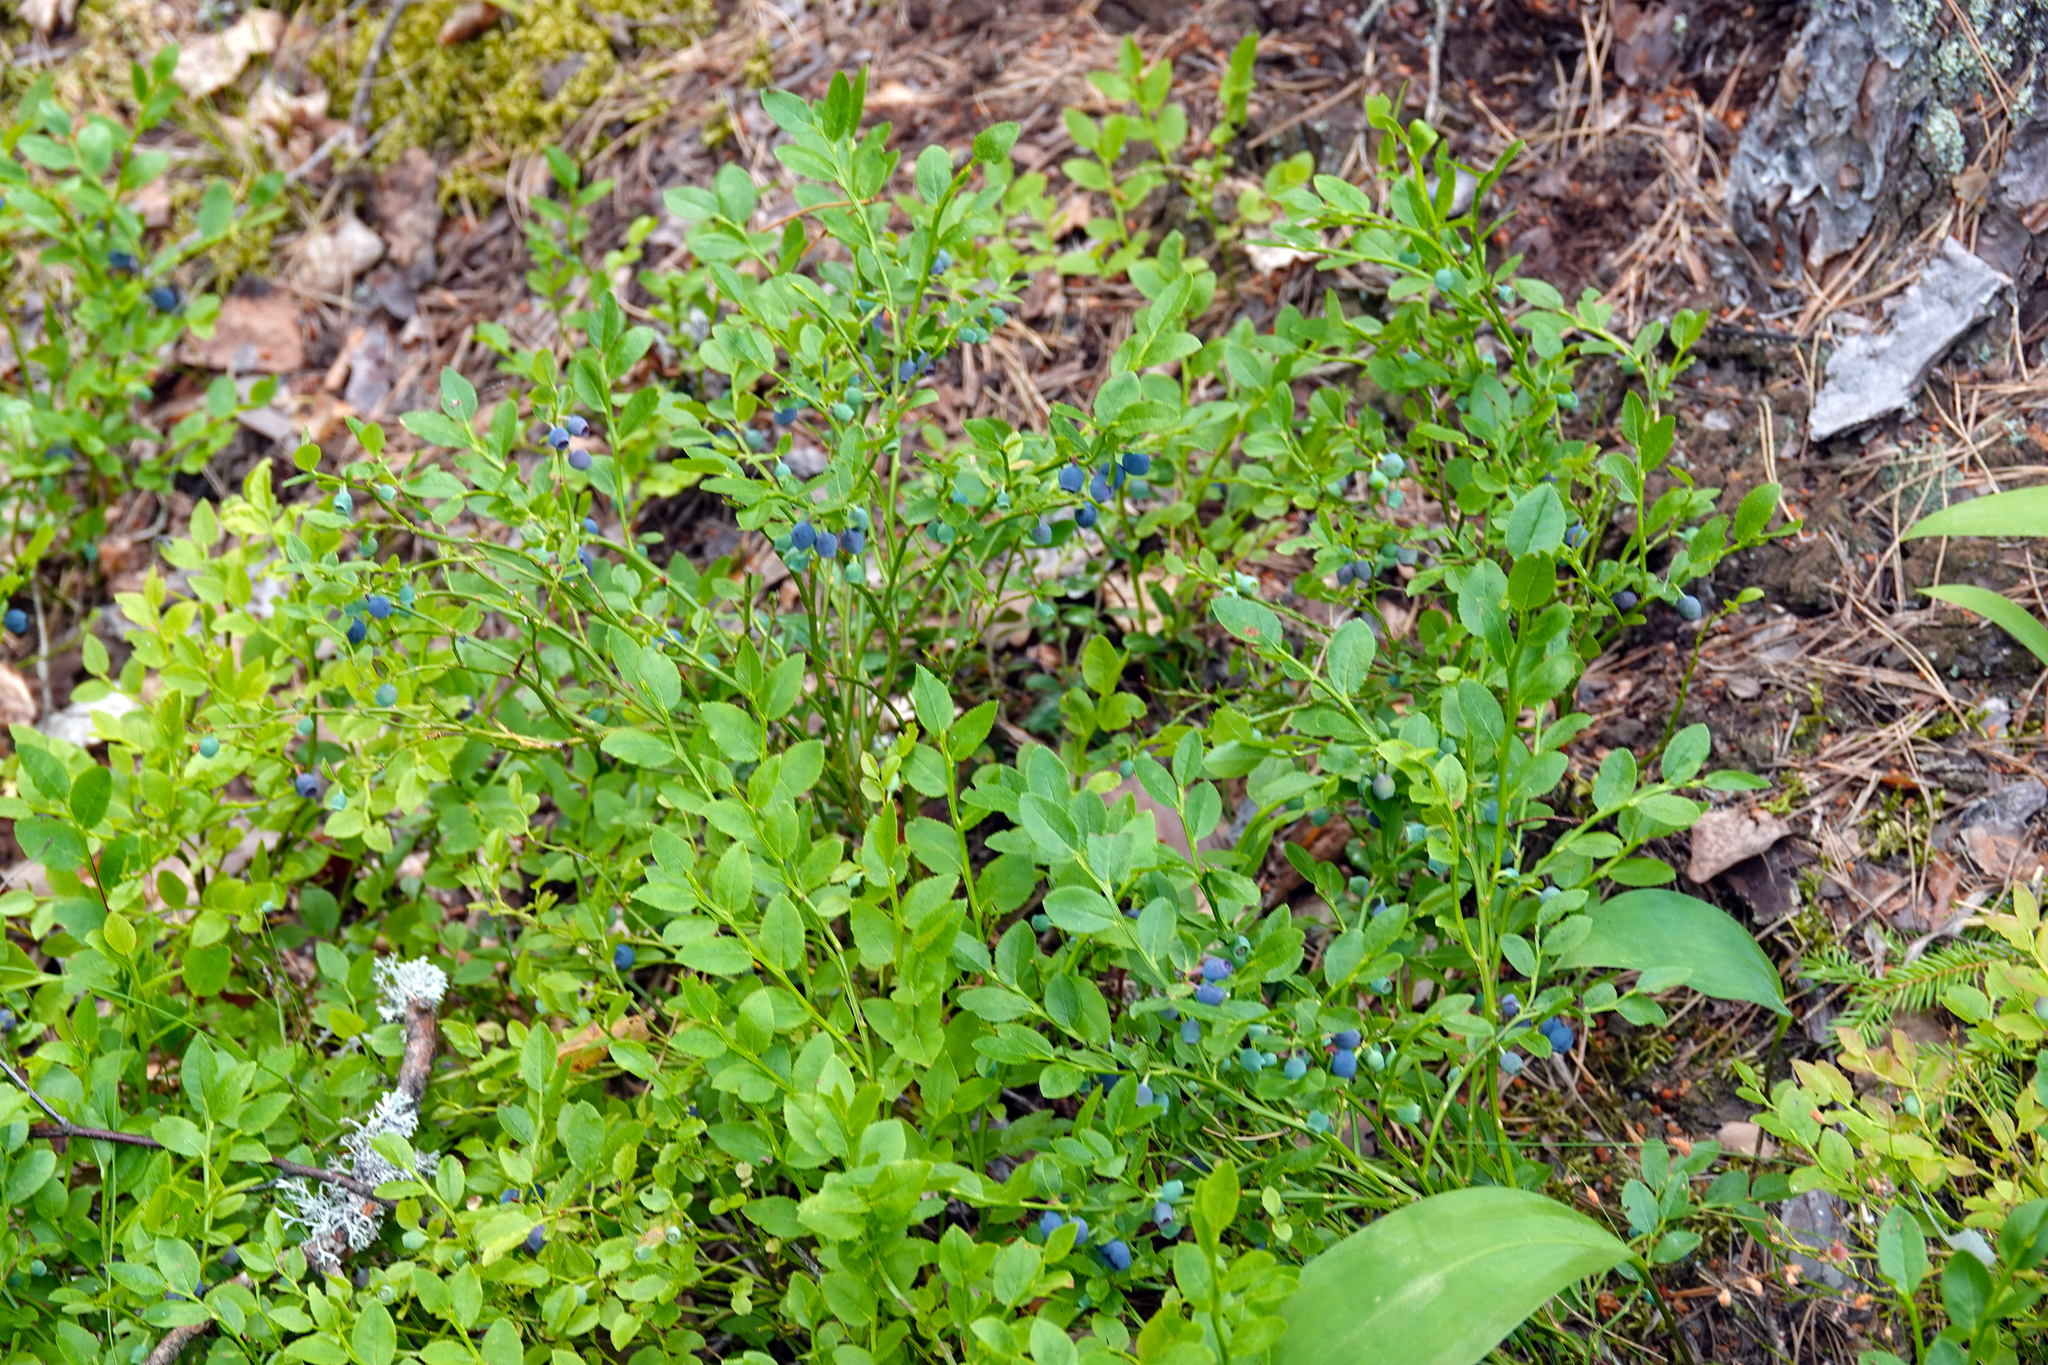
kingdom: Plantae
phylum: Tracheophyta
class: Magnoliopsida
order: Ericales
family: Ericaceae
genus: Vaccinium
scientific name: Vaccinium myrtillus
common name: Bilberry
